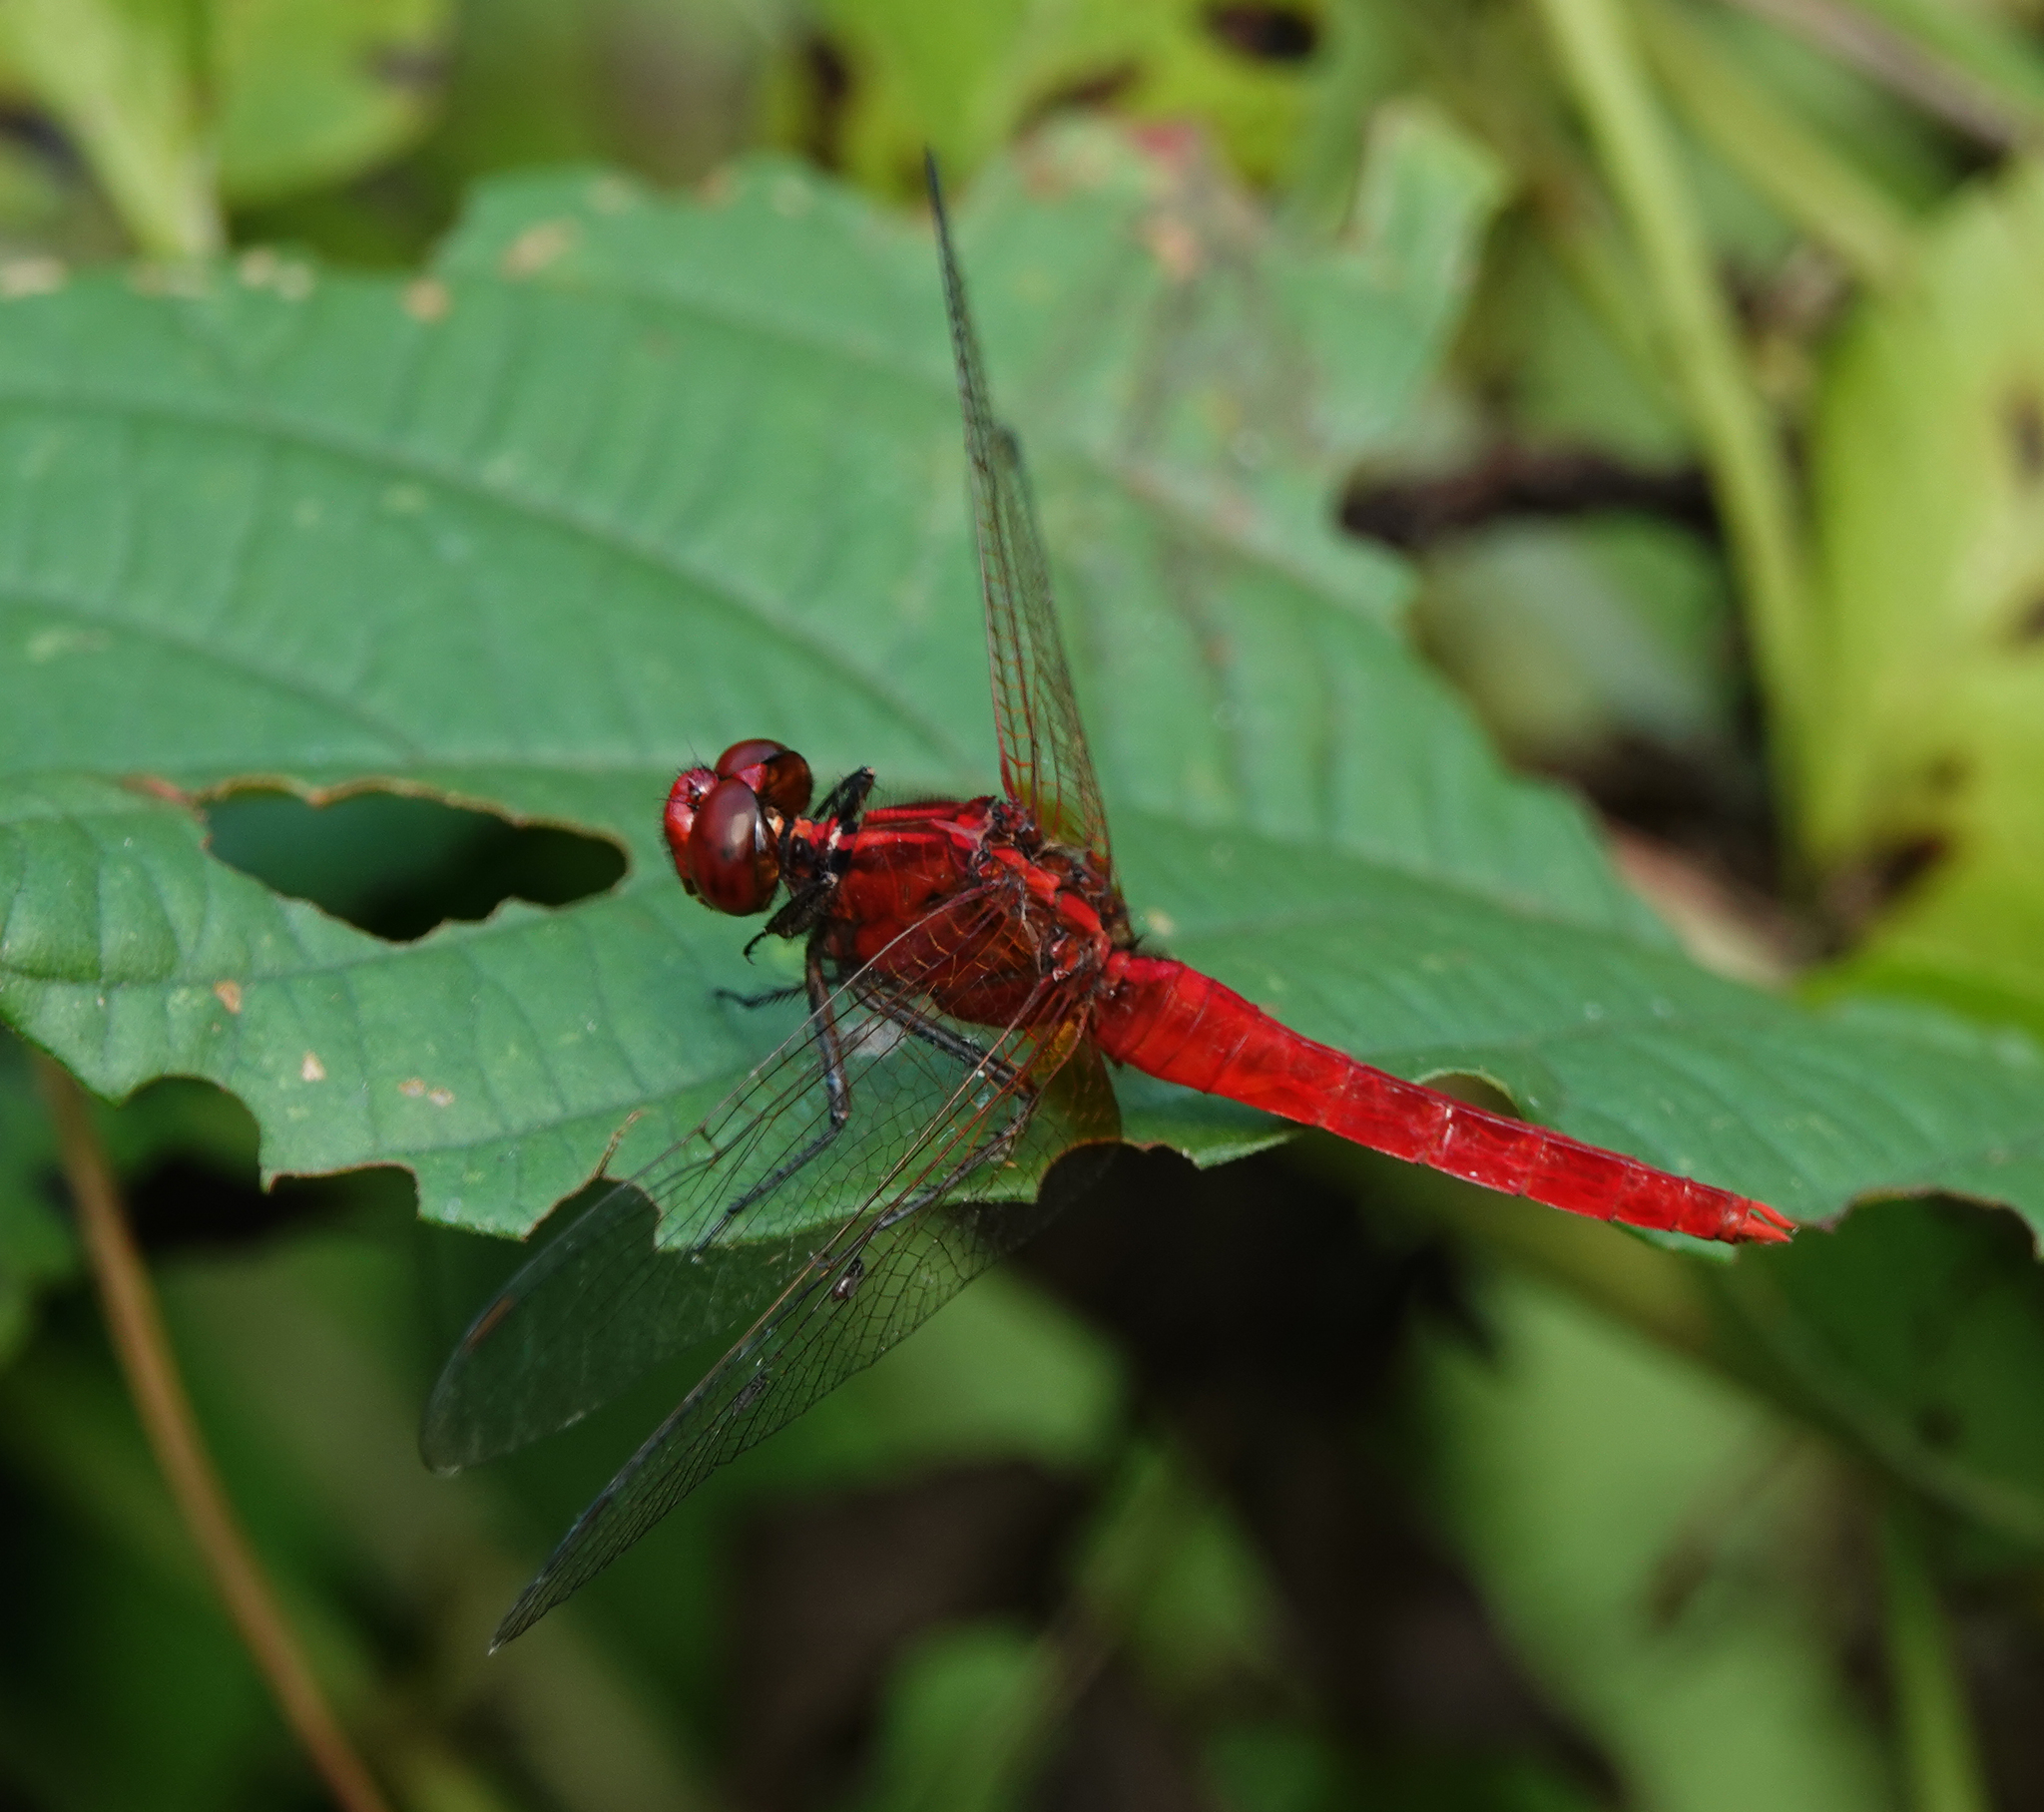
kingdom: Animalia
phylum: Arthropoda
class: Insecta
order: Odonata
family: Libellulidae
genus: Rhodothemis
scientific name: Rhodothemis rufa
